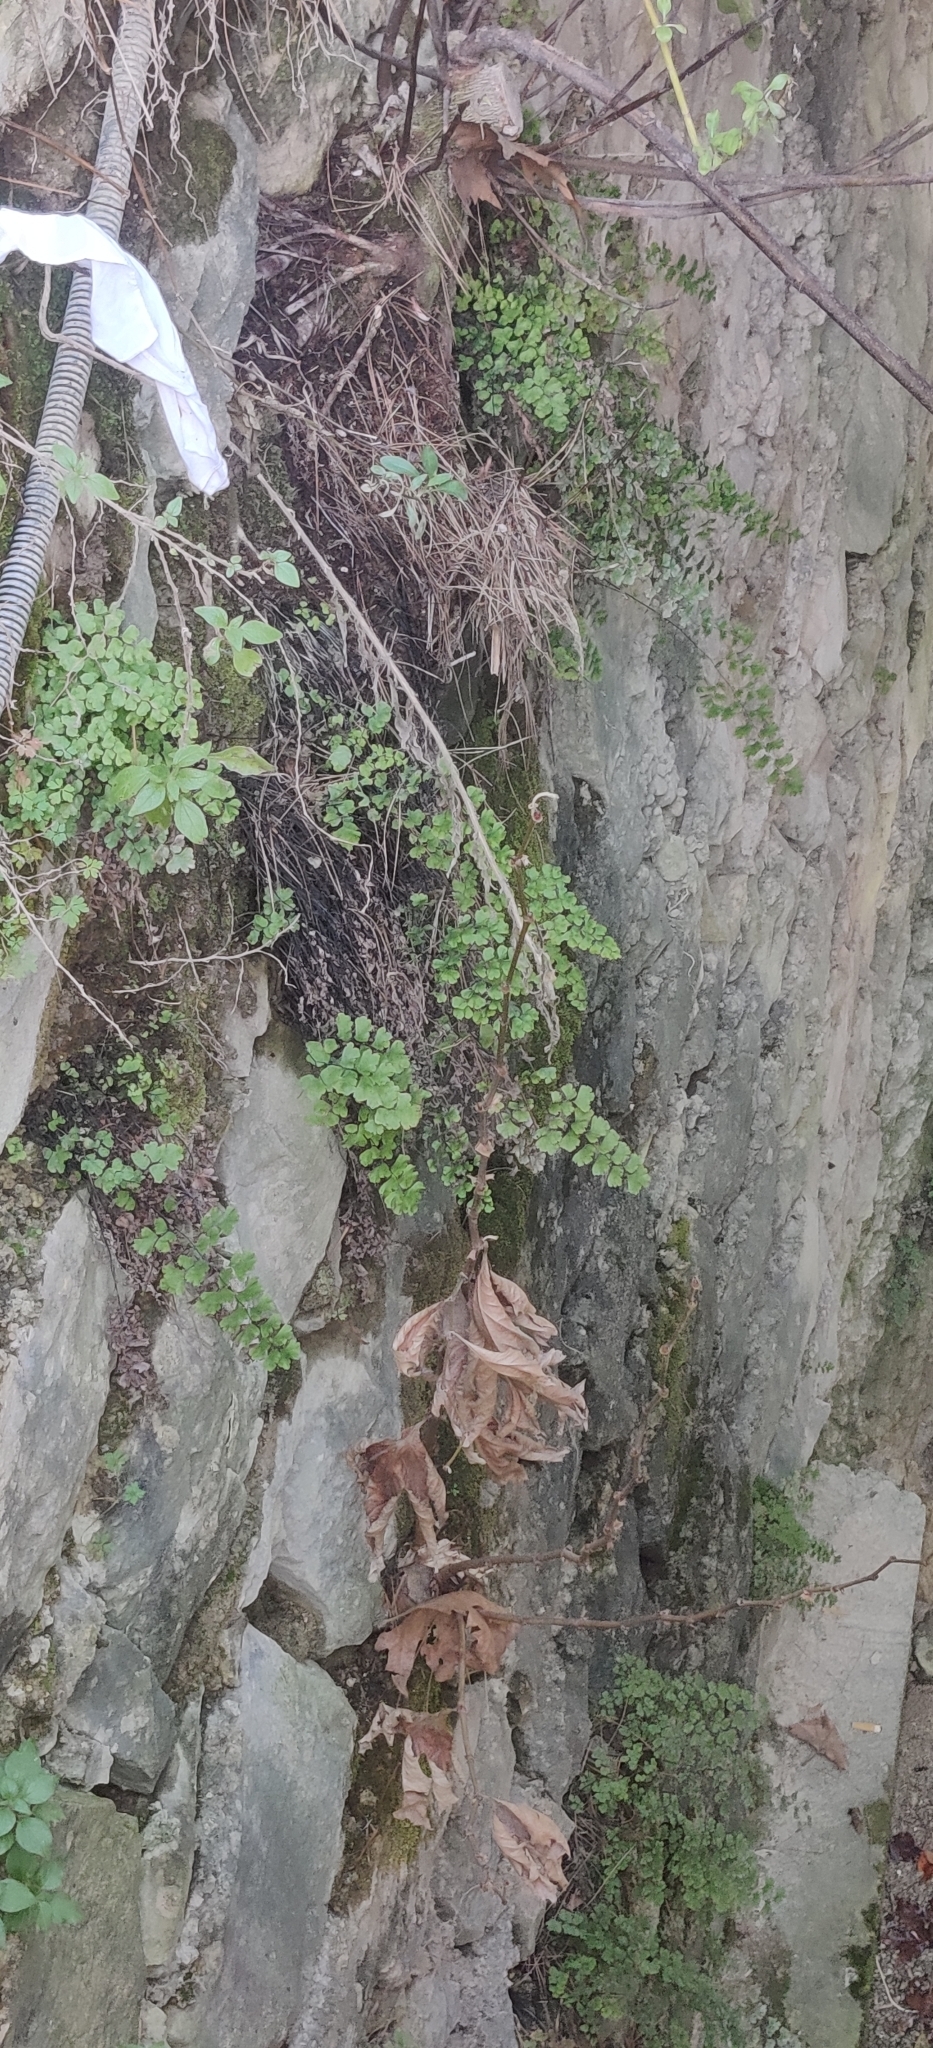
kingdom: Plantae
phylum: Tracheophyta
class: Polypodiopsida
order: Polypodiales
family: Pteridaceae
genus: Adiantum
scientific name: Adiantum capillus-veneris
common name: Maidenhair fern
